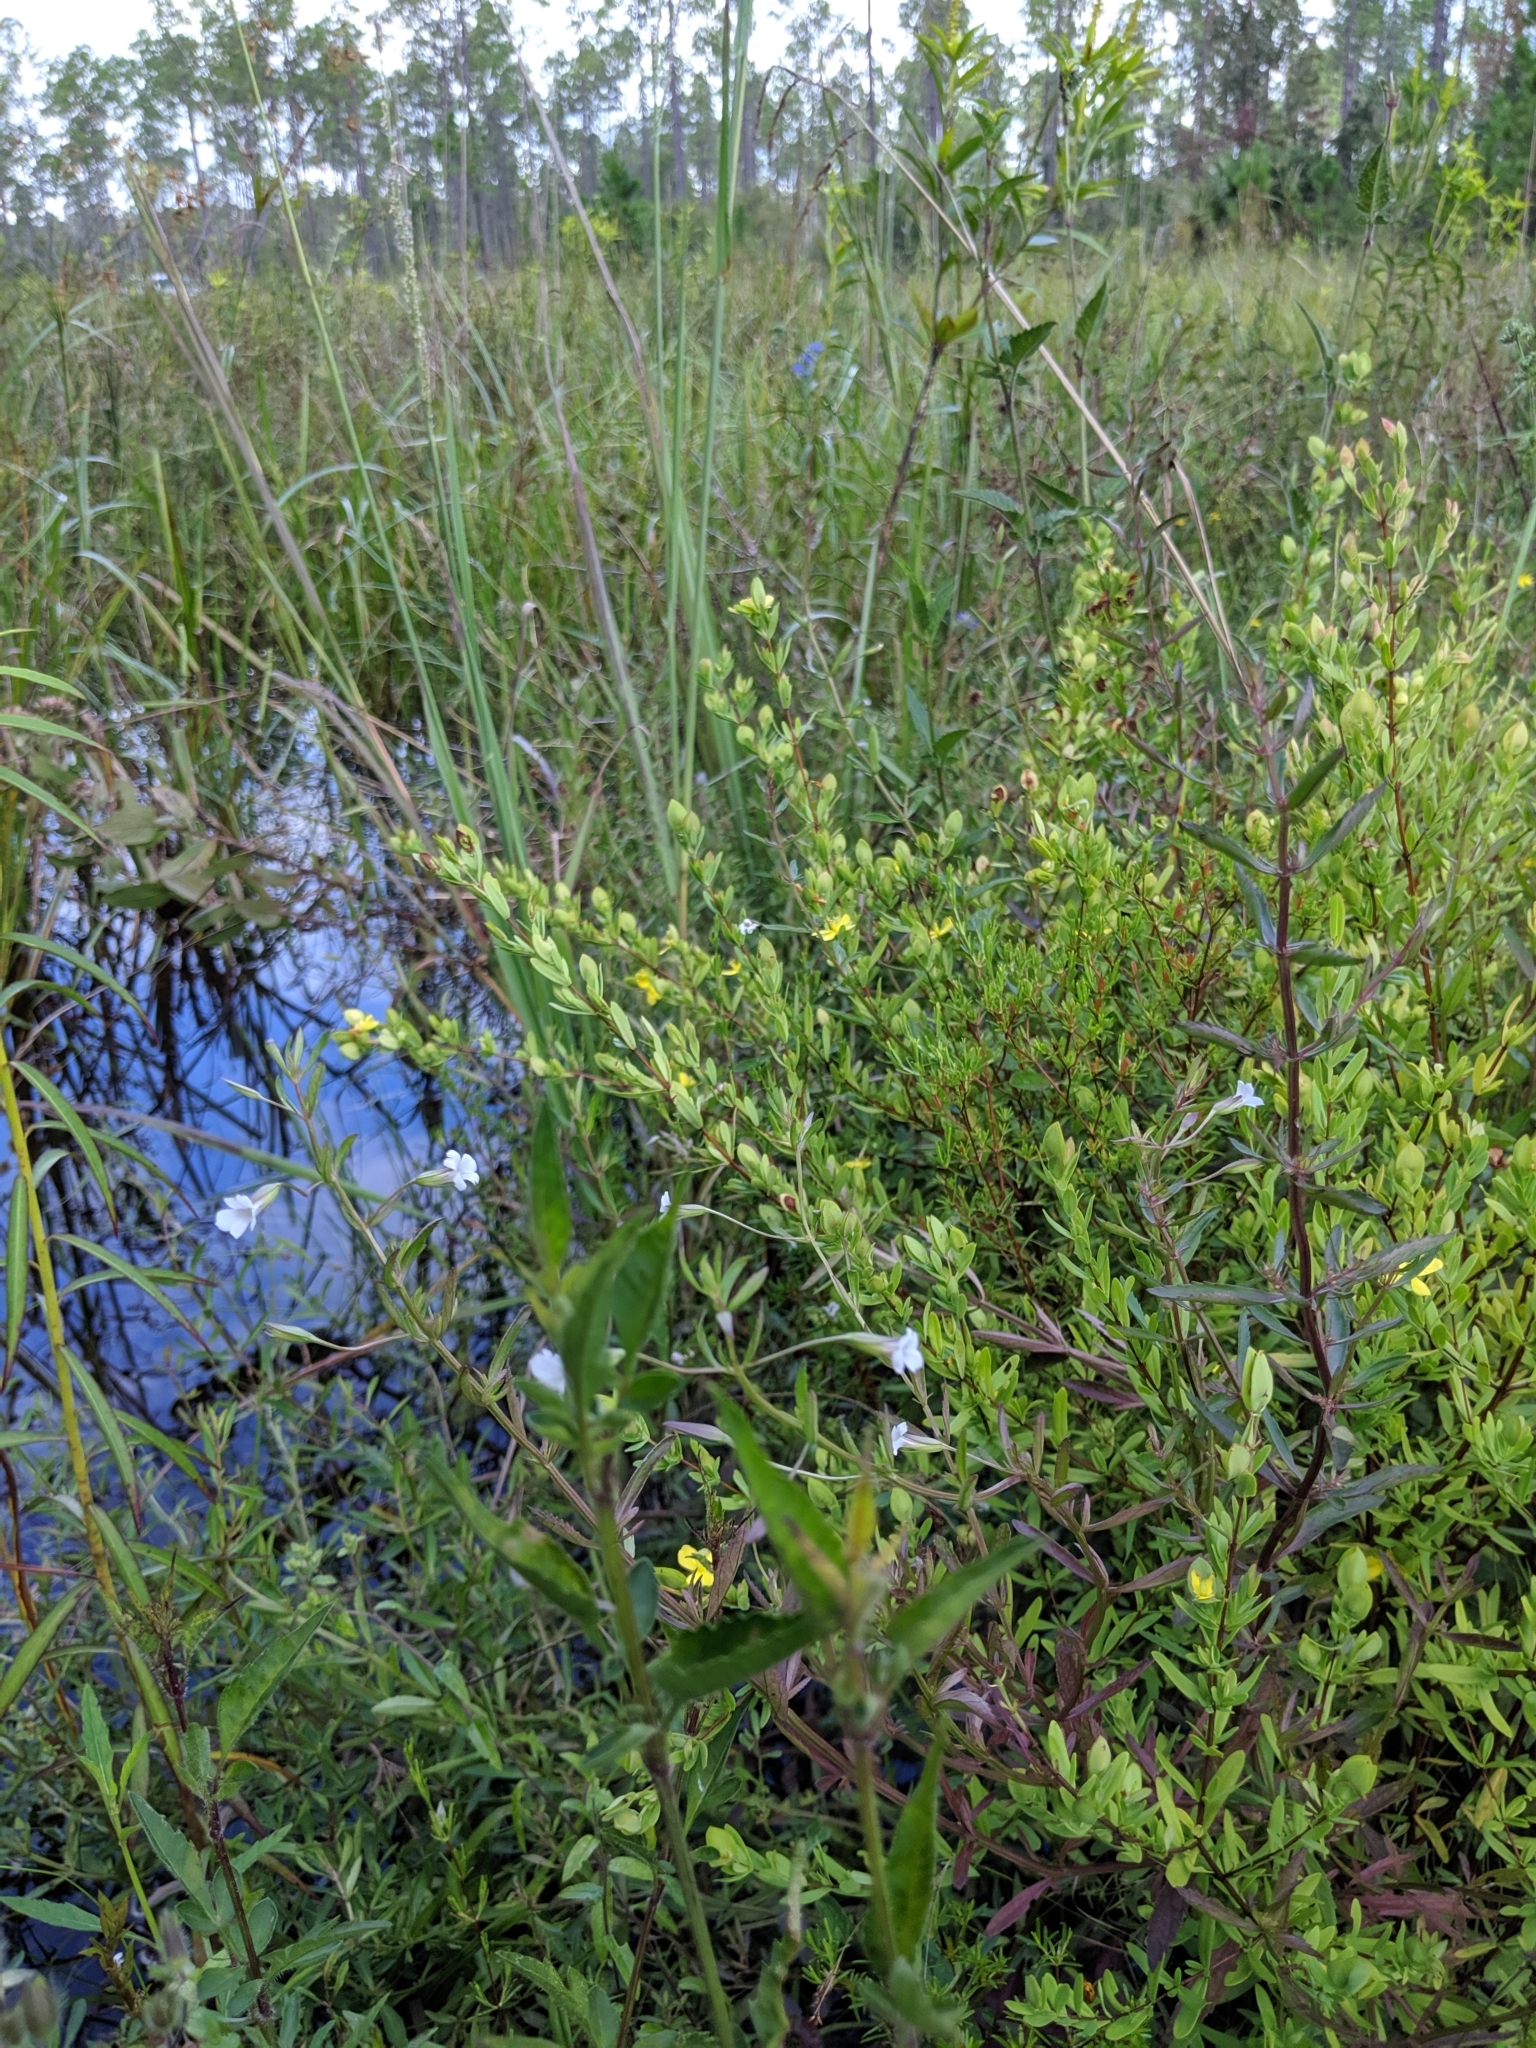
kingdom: Plantae
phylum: Tracheophyta
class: Magnoliopsida
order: Lamiales
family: Plantaginaceae
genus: Mecardonia
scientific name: Mecardonia acuminata
